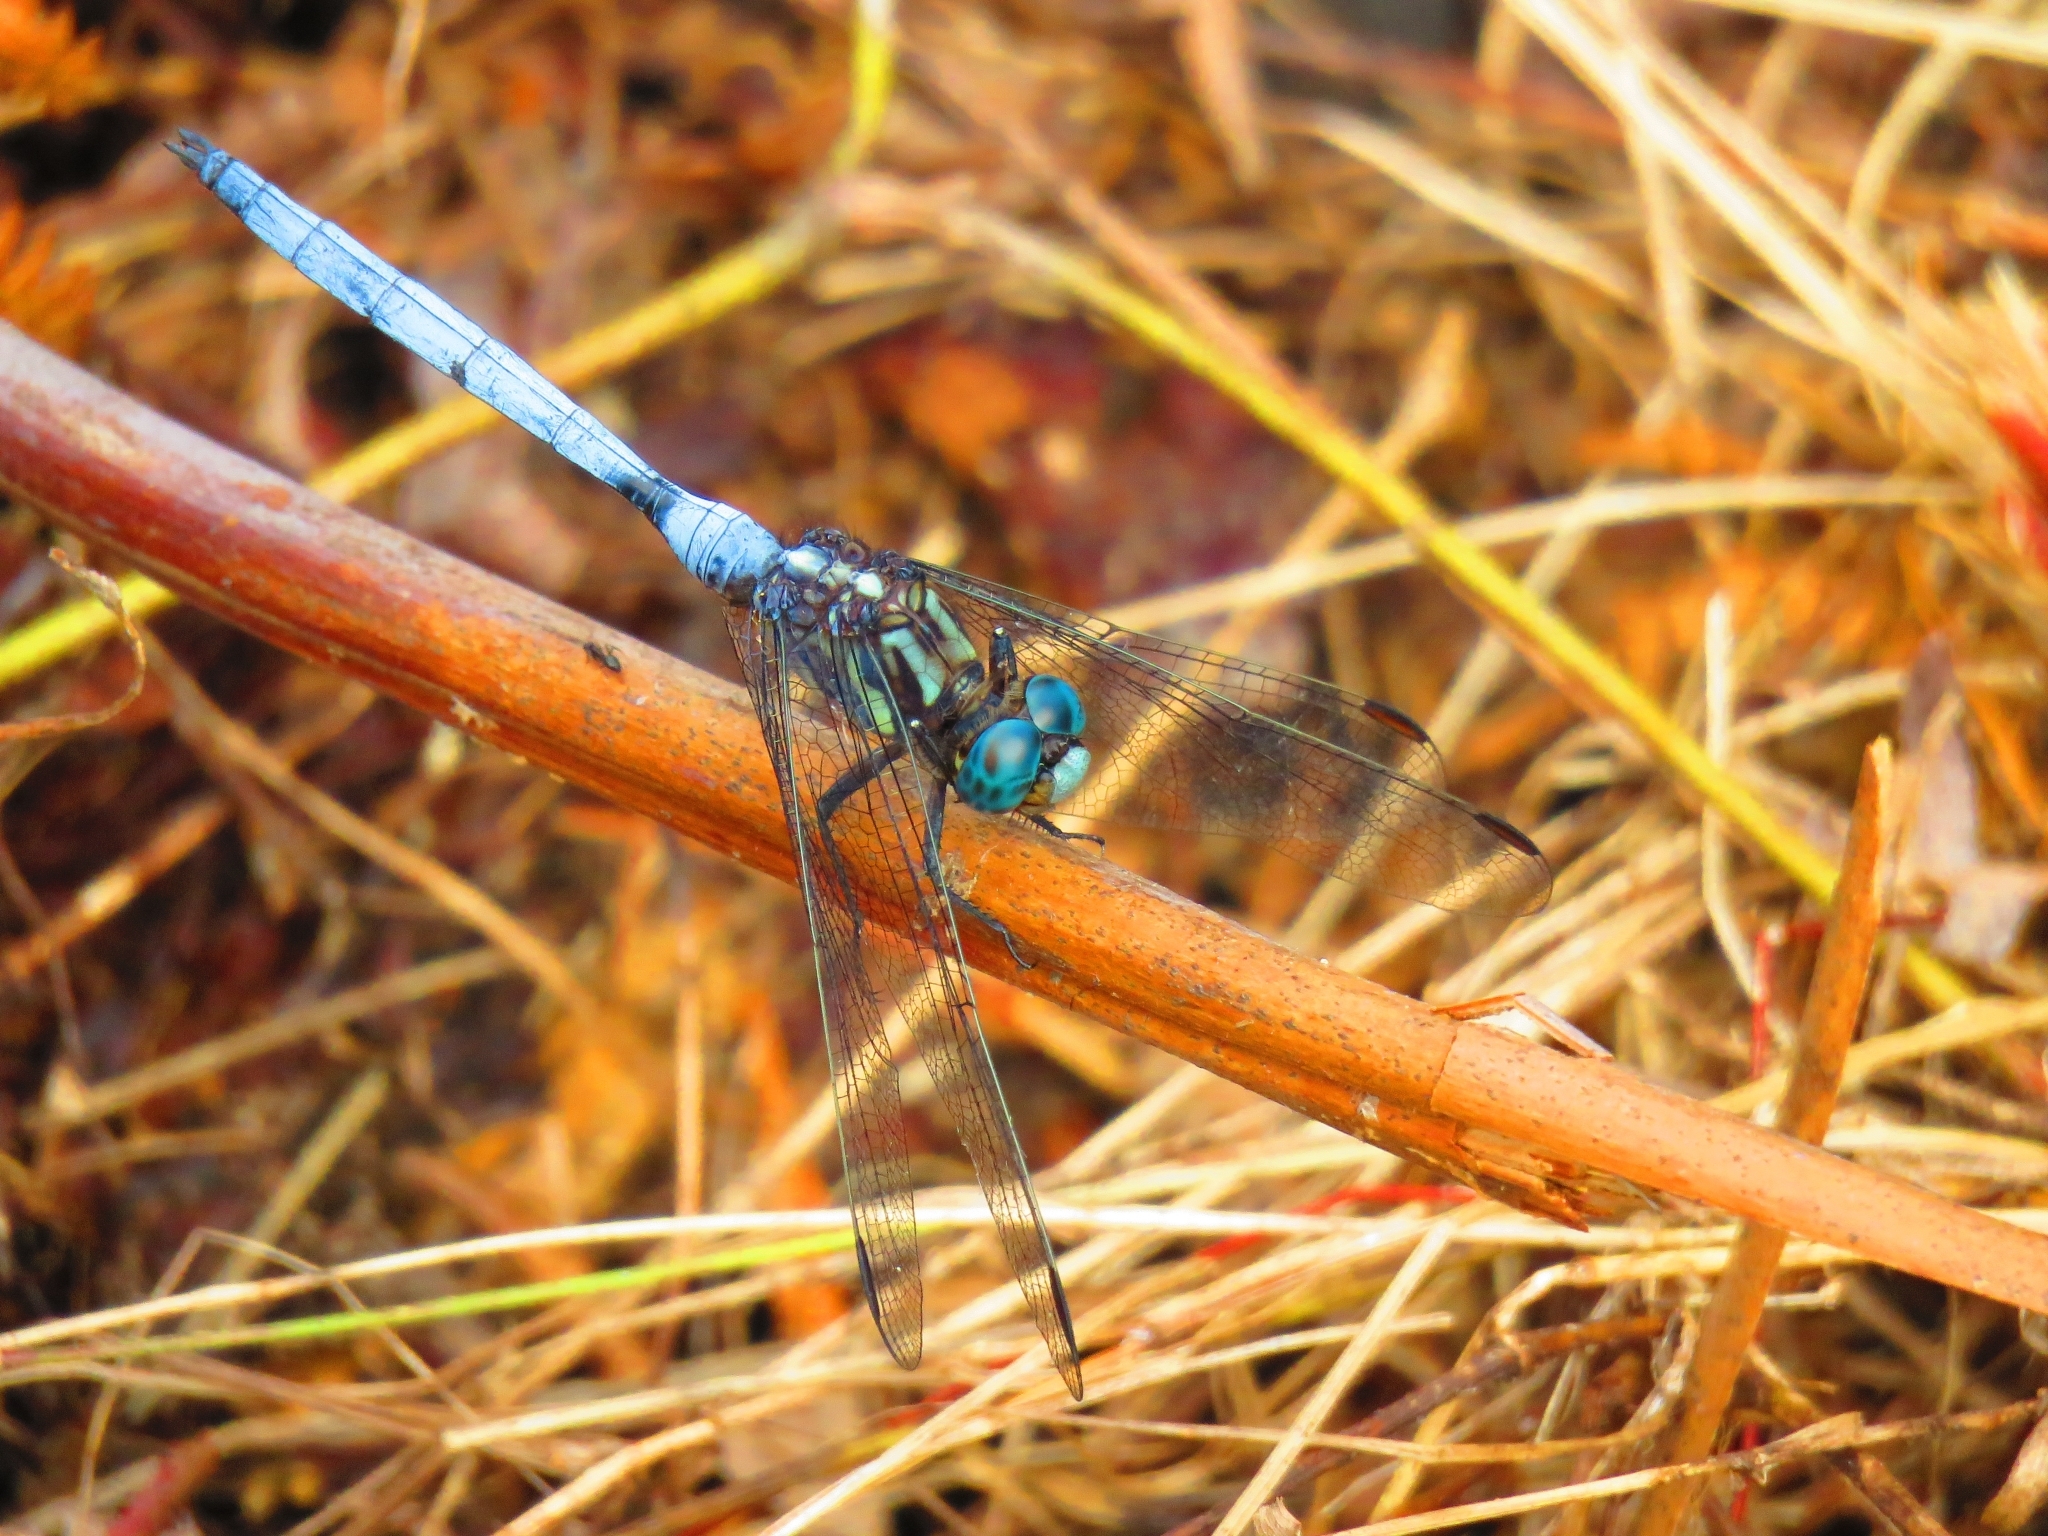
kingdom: Animalia
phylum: Arthropoda
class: Insecta
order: Odonata
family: Libellulidae
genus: Orthetrum
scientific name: Orthetrum julia
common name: Julia skimmer
